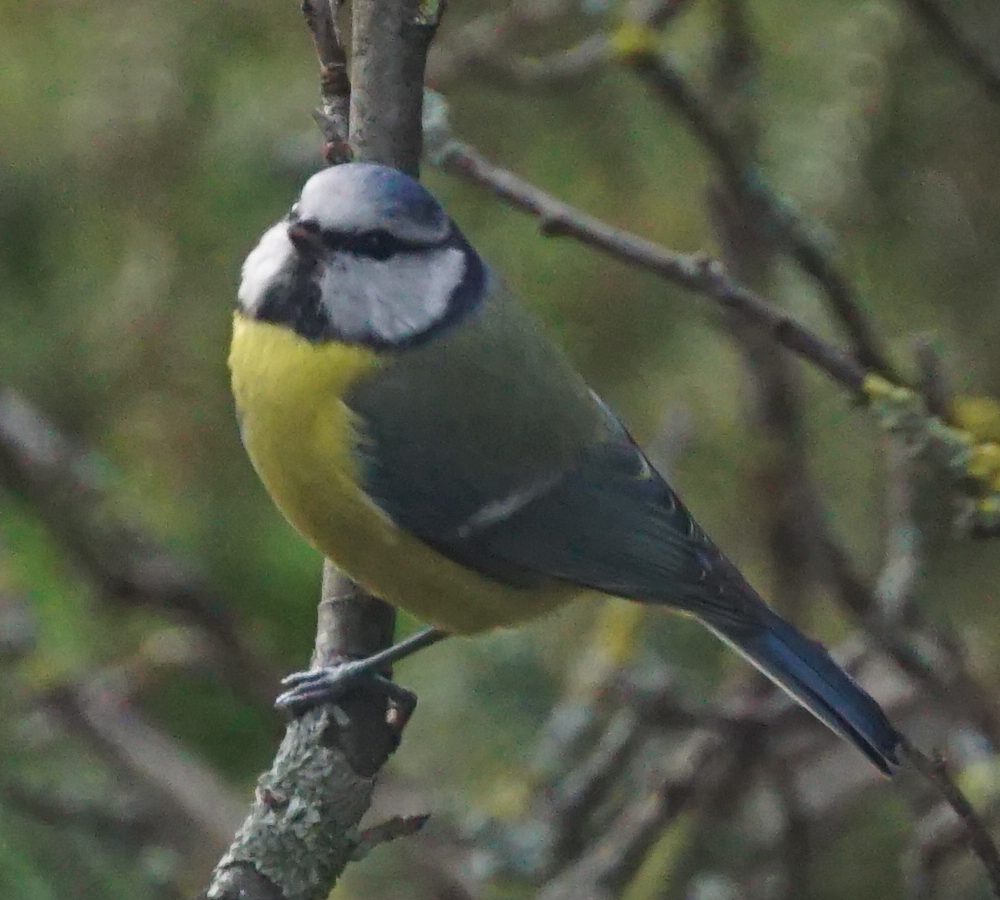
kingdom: Animalia
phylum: Chordata
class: Aves
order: Passeriformes
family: Paridae
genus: Cyanistes
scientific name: Cyanistes caeruleus
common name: Eurasian blue tit
